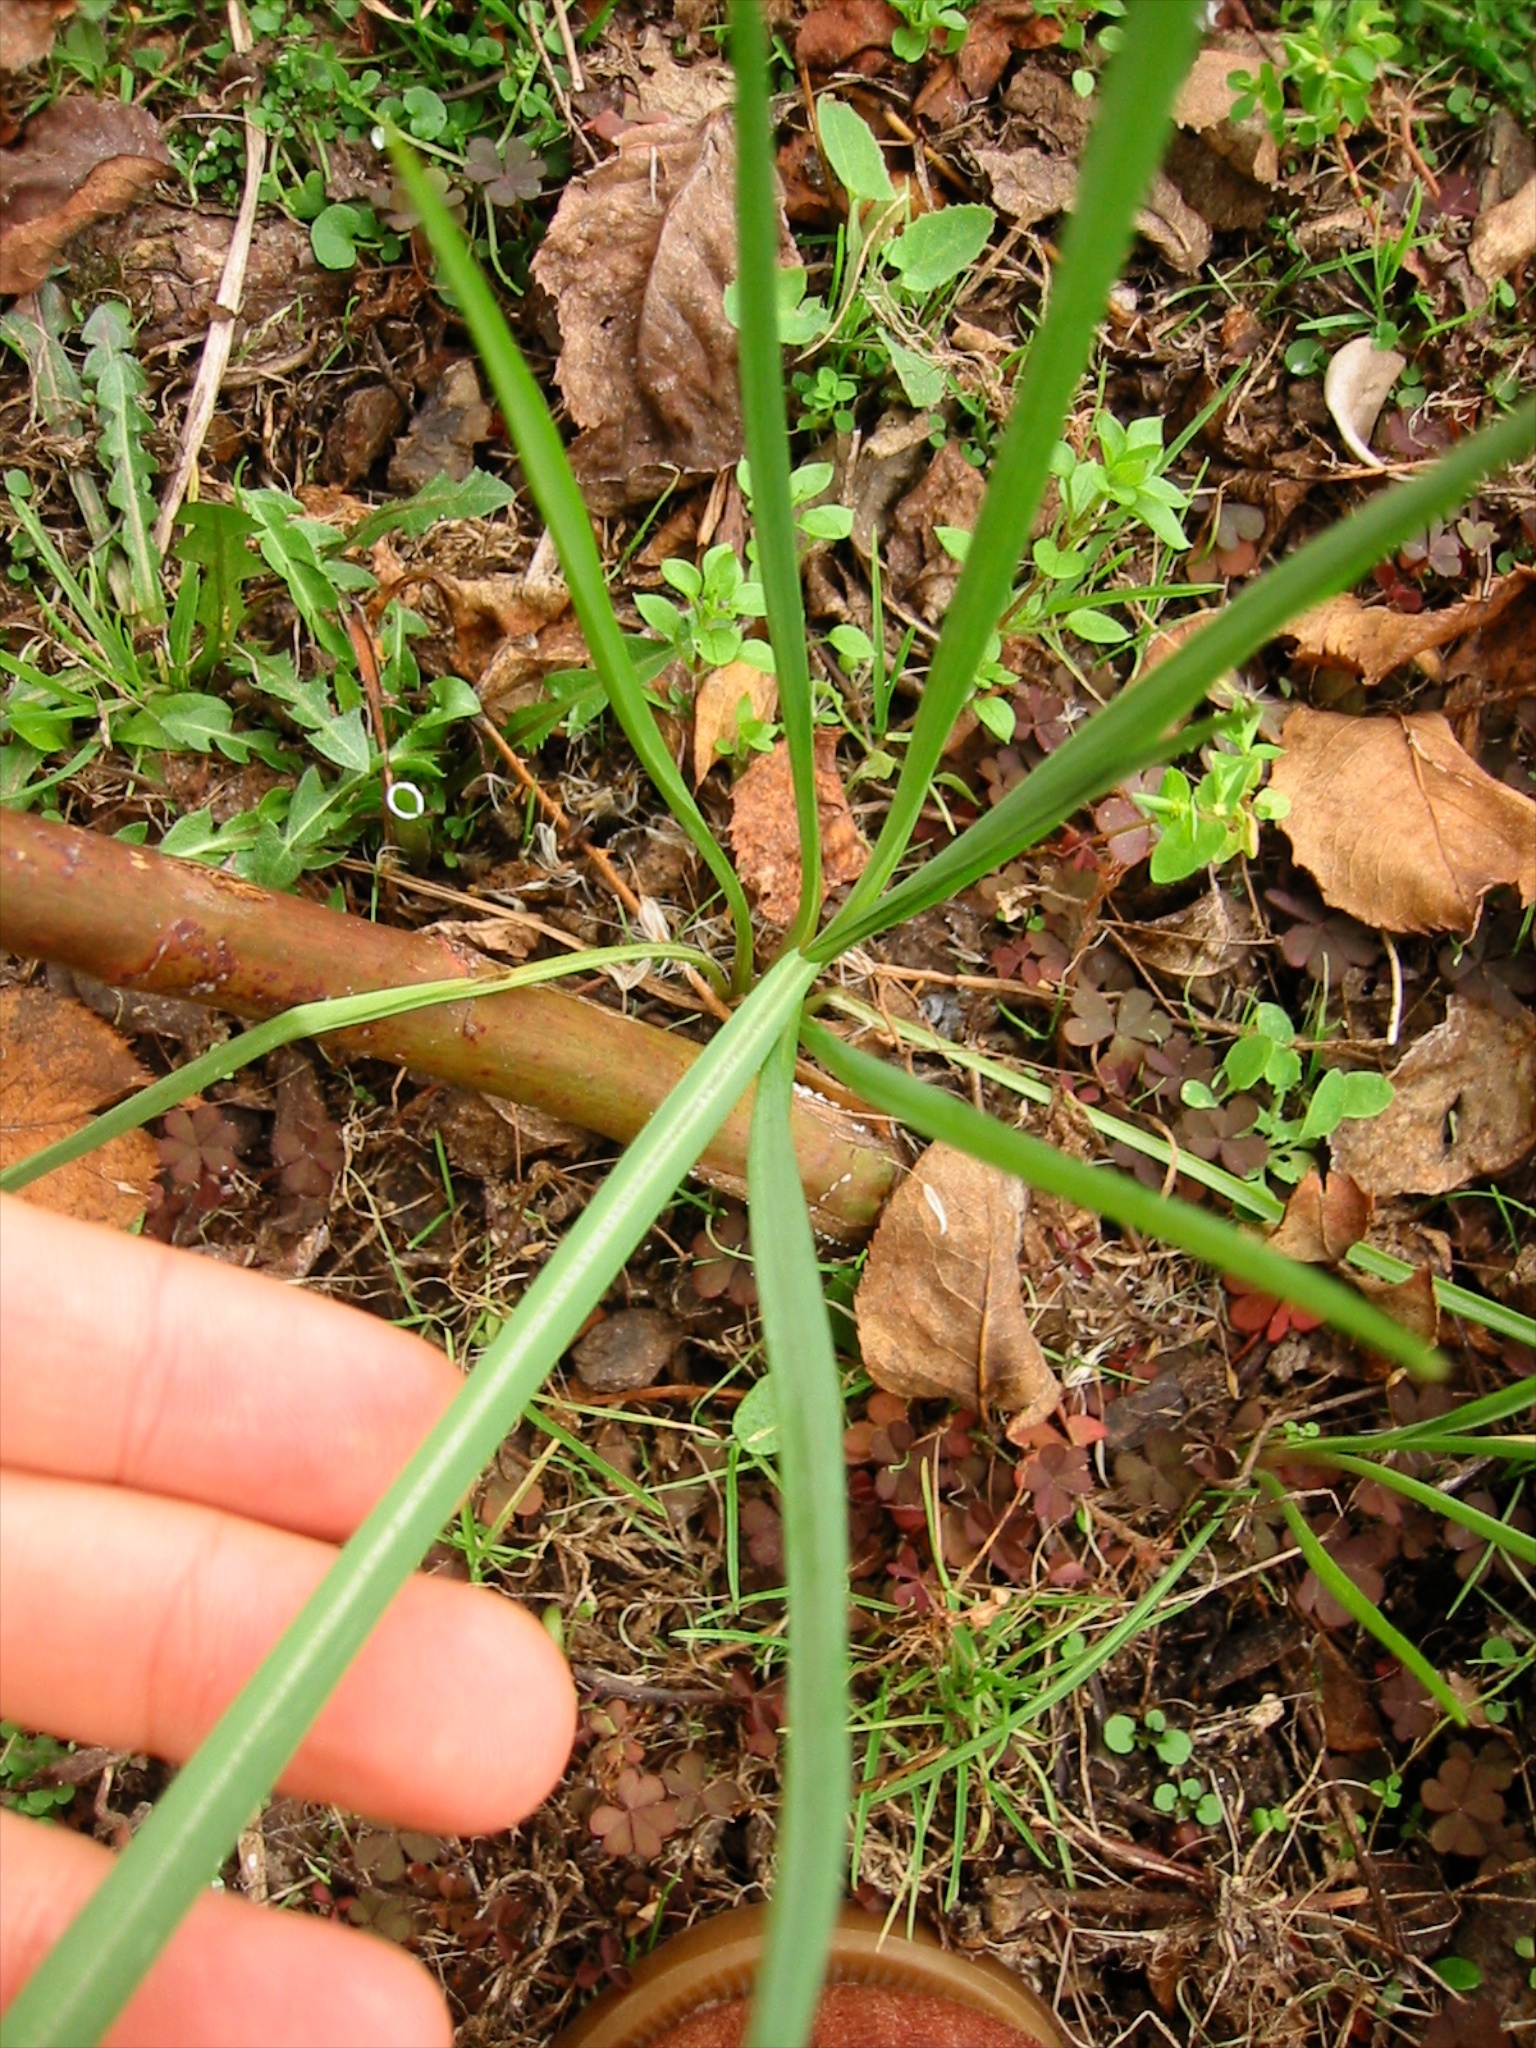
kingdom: Plantae
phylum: Tracheophyta
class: Magnoliopsida
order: Asterales
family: Asteraceae
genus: Tragopogon
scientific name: Tragopogon porrifolius
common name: Salsify
